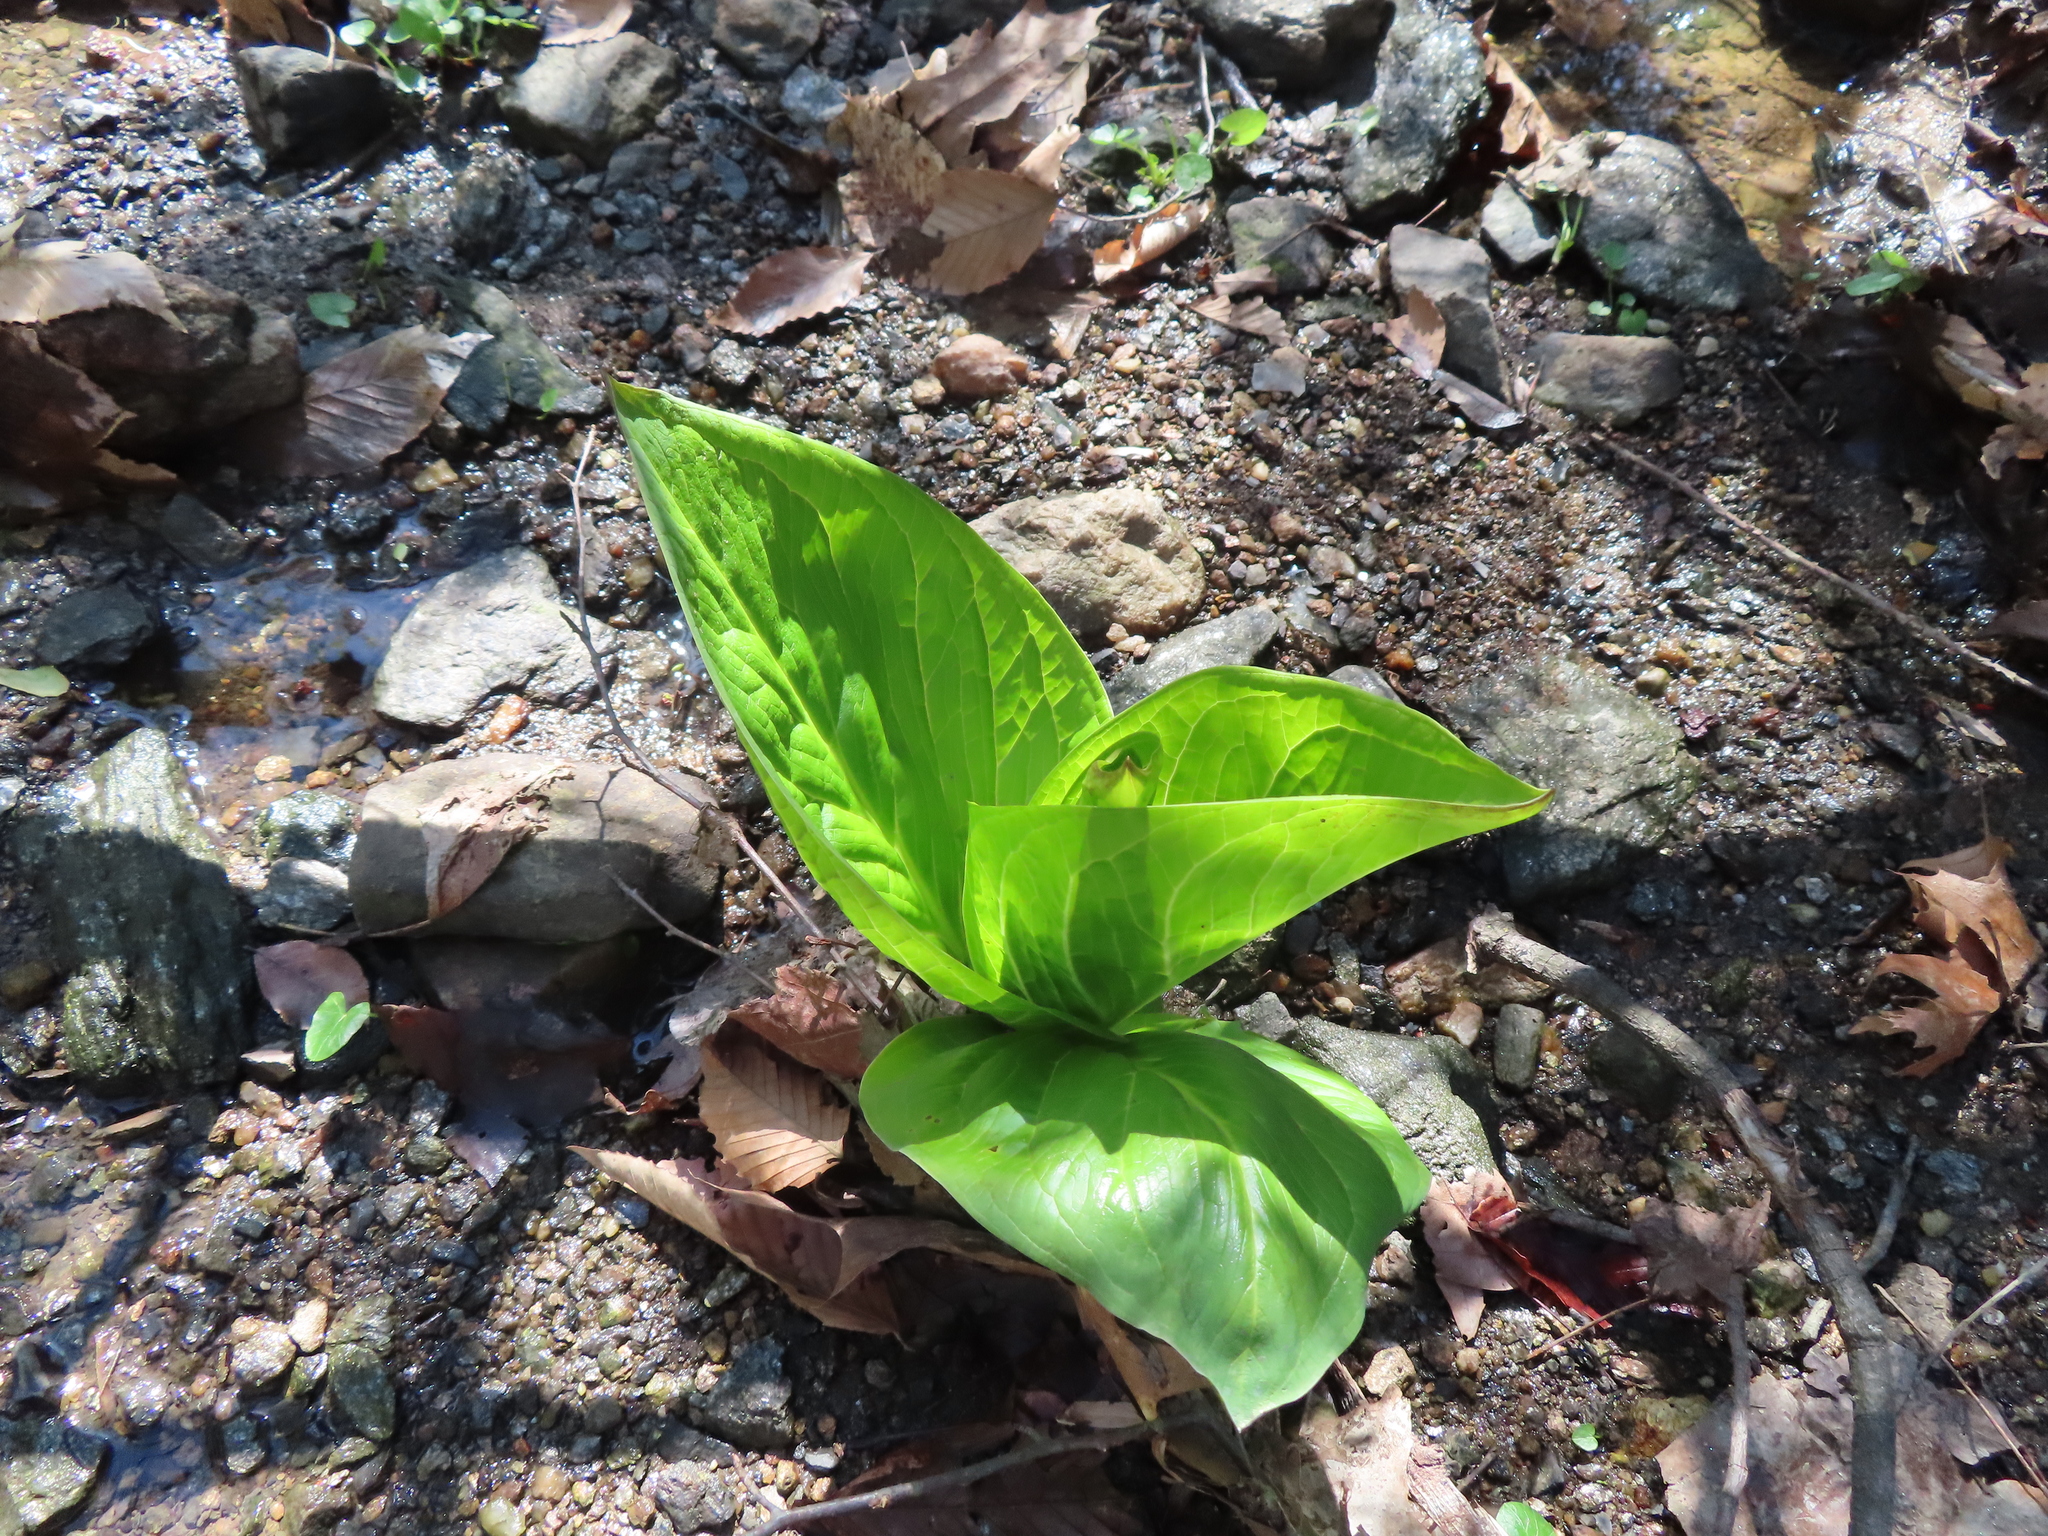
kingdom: Plantae
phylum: Tracheophyta
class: Liliopsida
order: Alismatales
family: Araceae
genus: Symplocarpus
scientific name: Symplocarpus foetidus
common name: Eastern skunk cabbage
